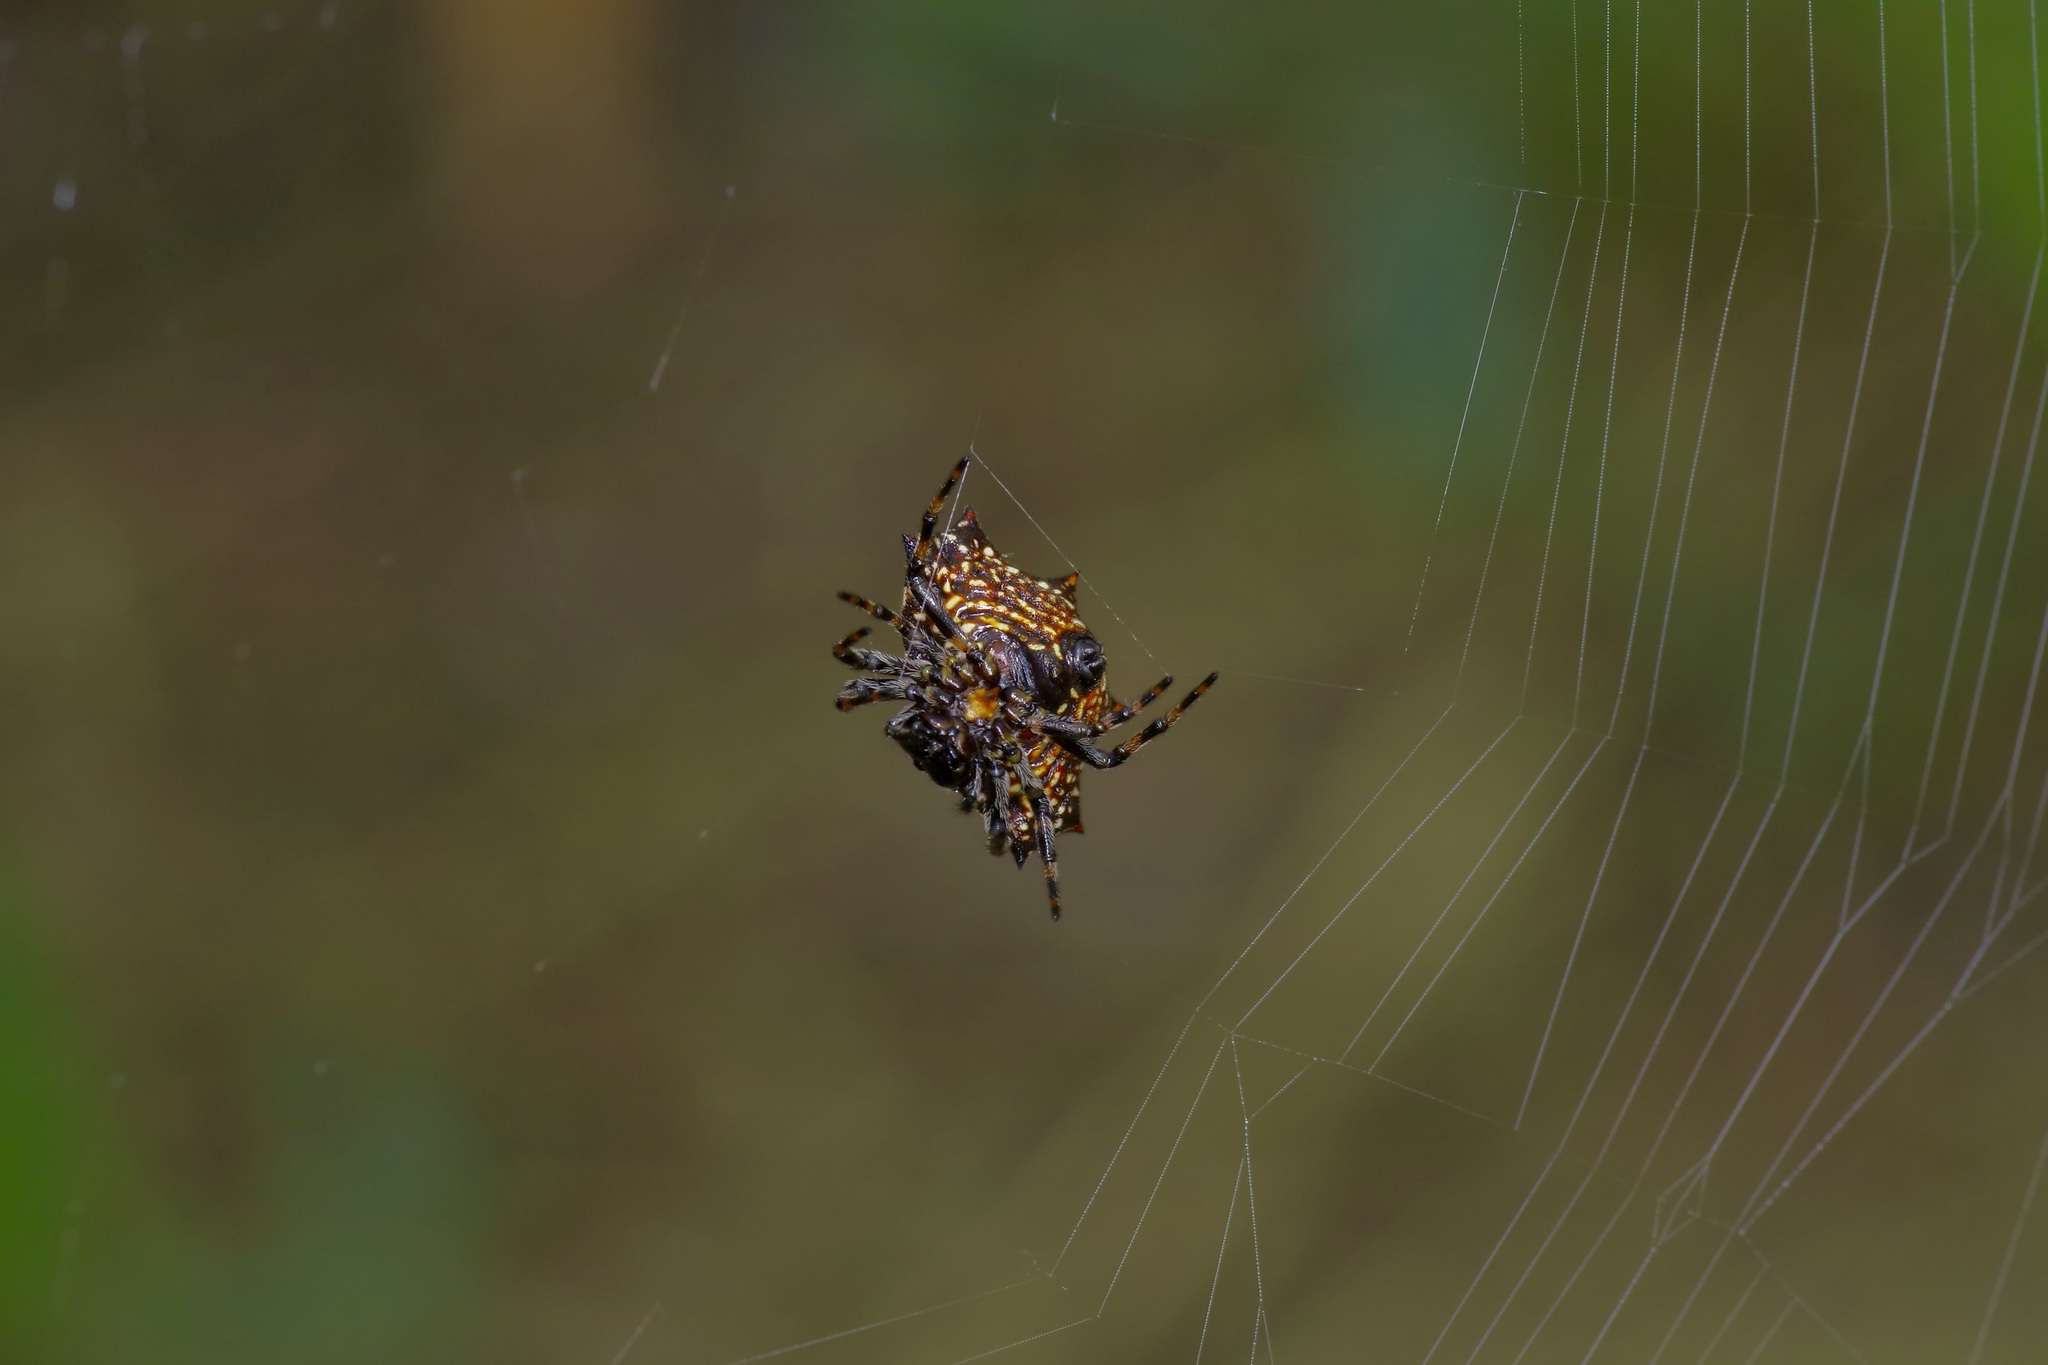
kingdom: Animalia
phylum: Arthropoda
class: Arachnida
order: Araneae
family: Araneidae
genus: Gasteracantha
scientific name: Gasteracantha cancriformis
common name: Orb weavers
